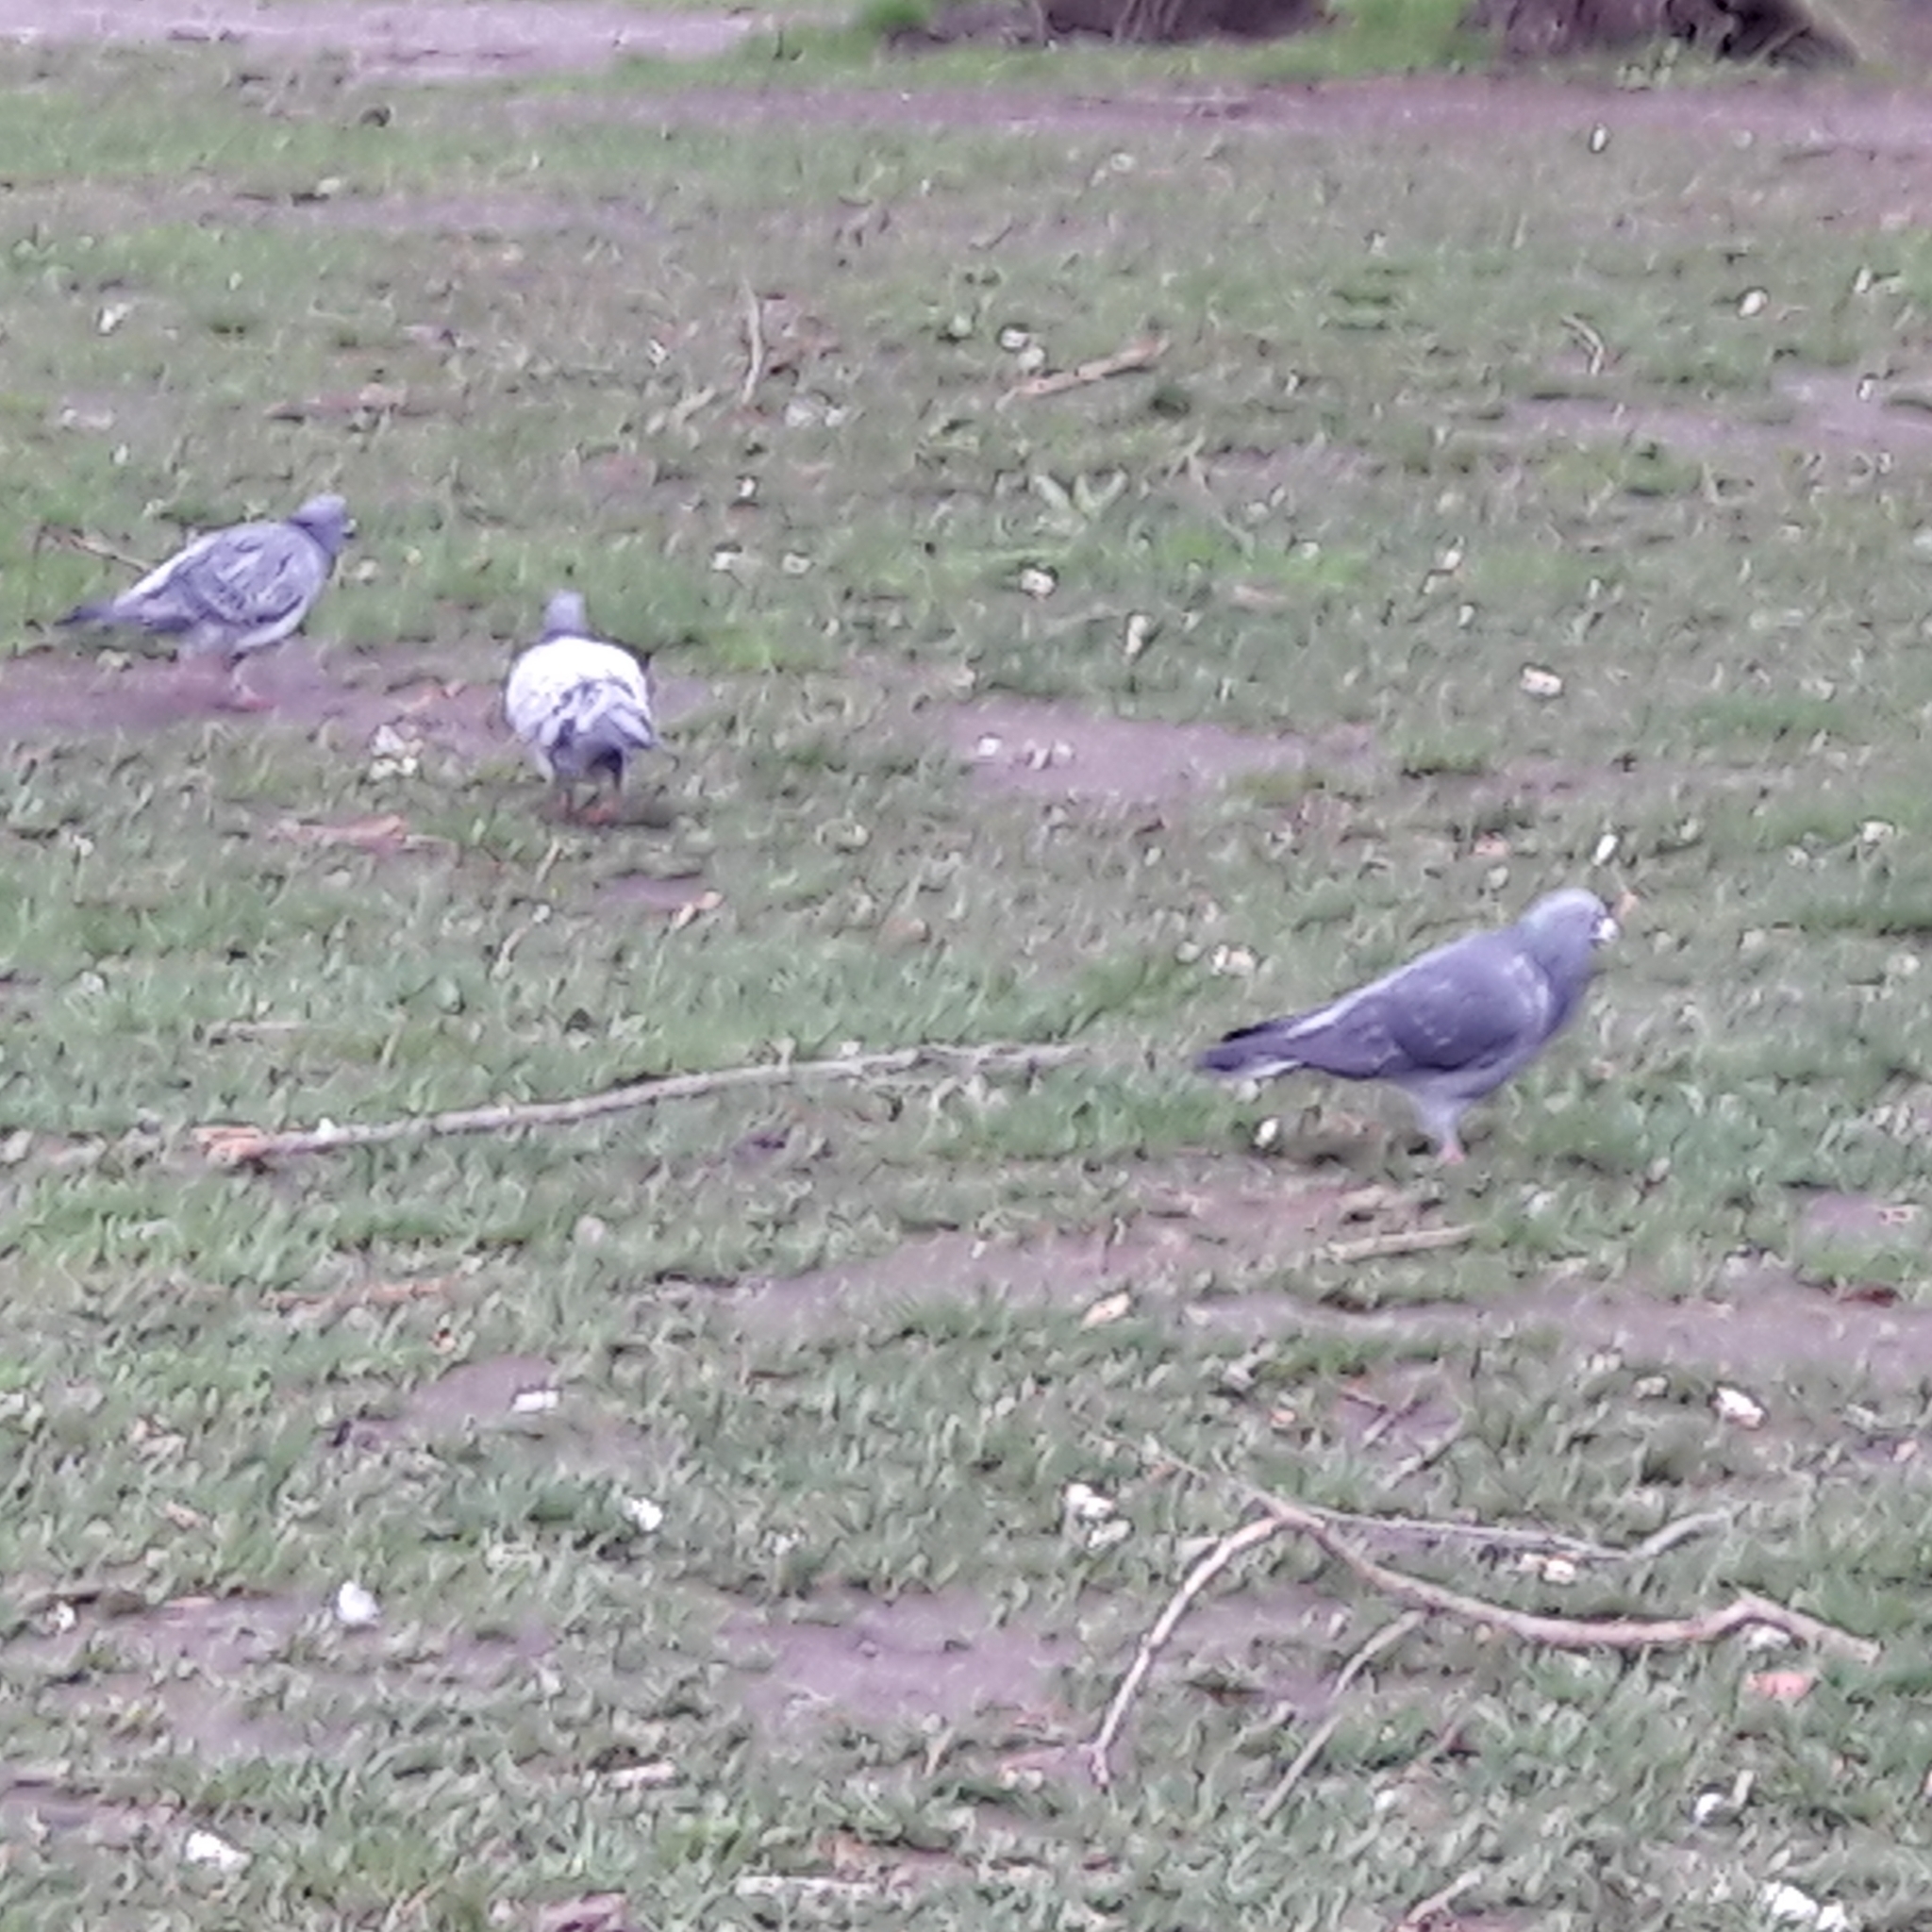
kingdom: Animalia
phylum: Chordata
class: Aves
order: Columbiformes
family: Columbidae
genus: Columba
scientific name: Columba livia
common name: Rock pigeon
